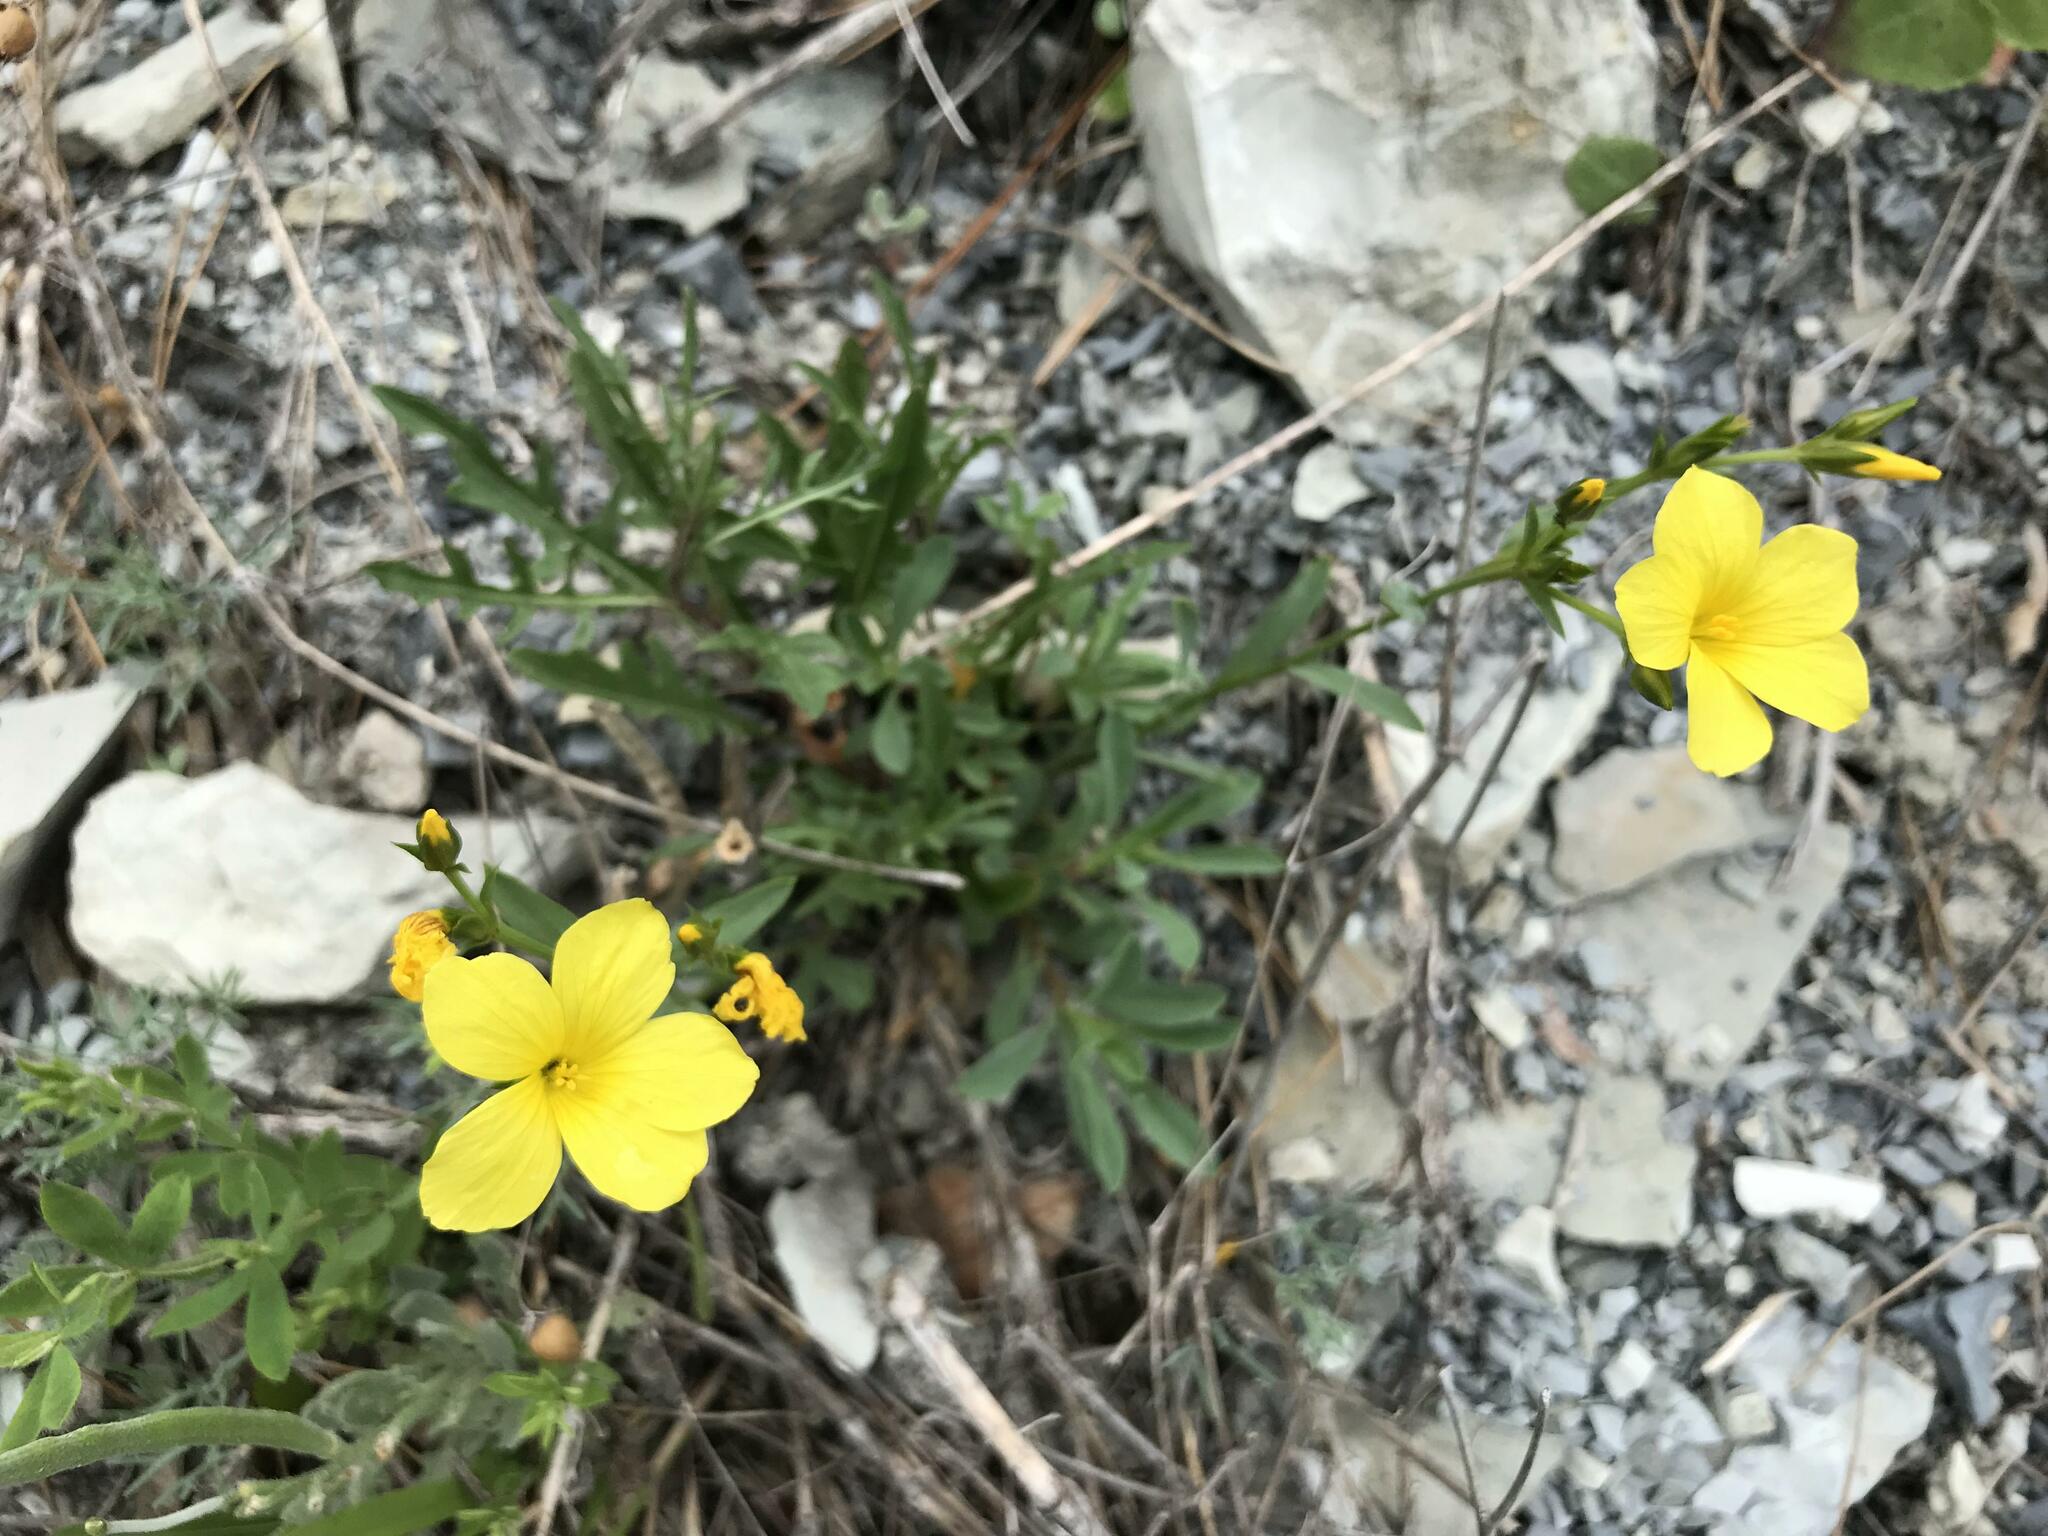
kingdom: Plantae
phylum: Tracheophyta
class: Magnoliopsida
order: Malpighiales
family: Linaceae
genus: Linum
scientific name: Linum tauricum
